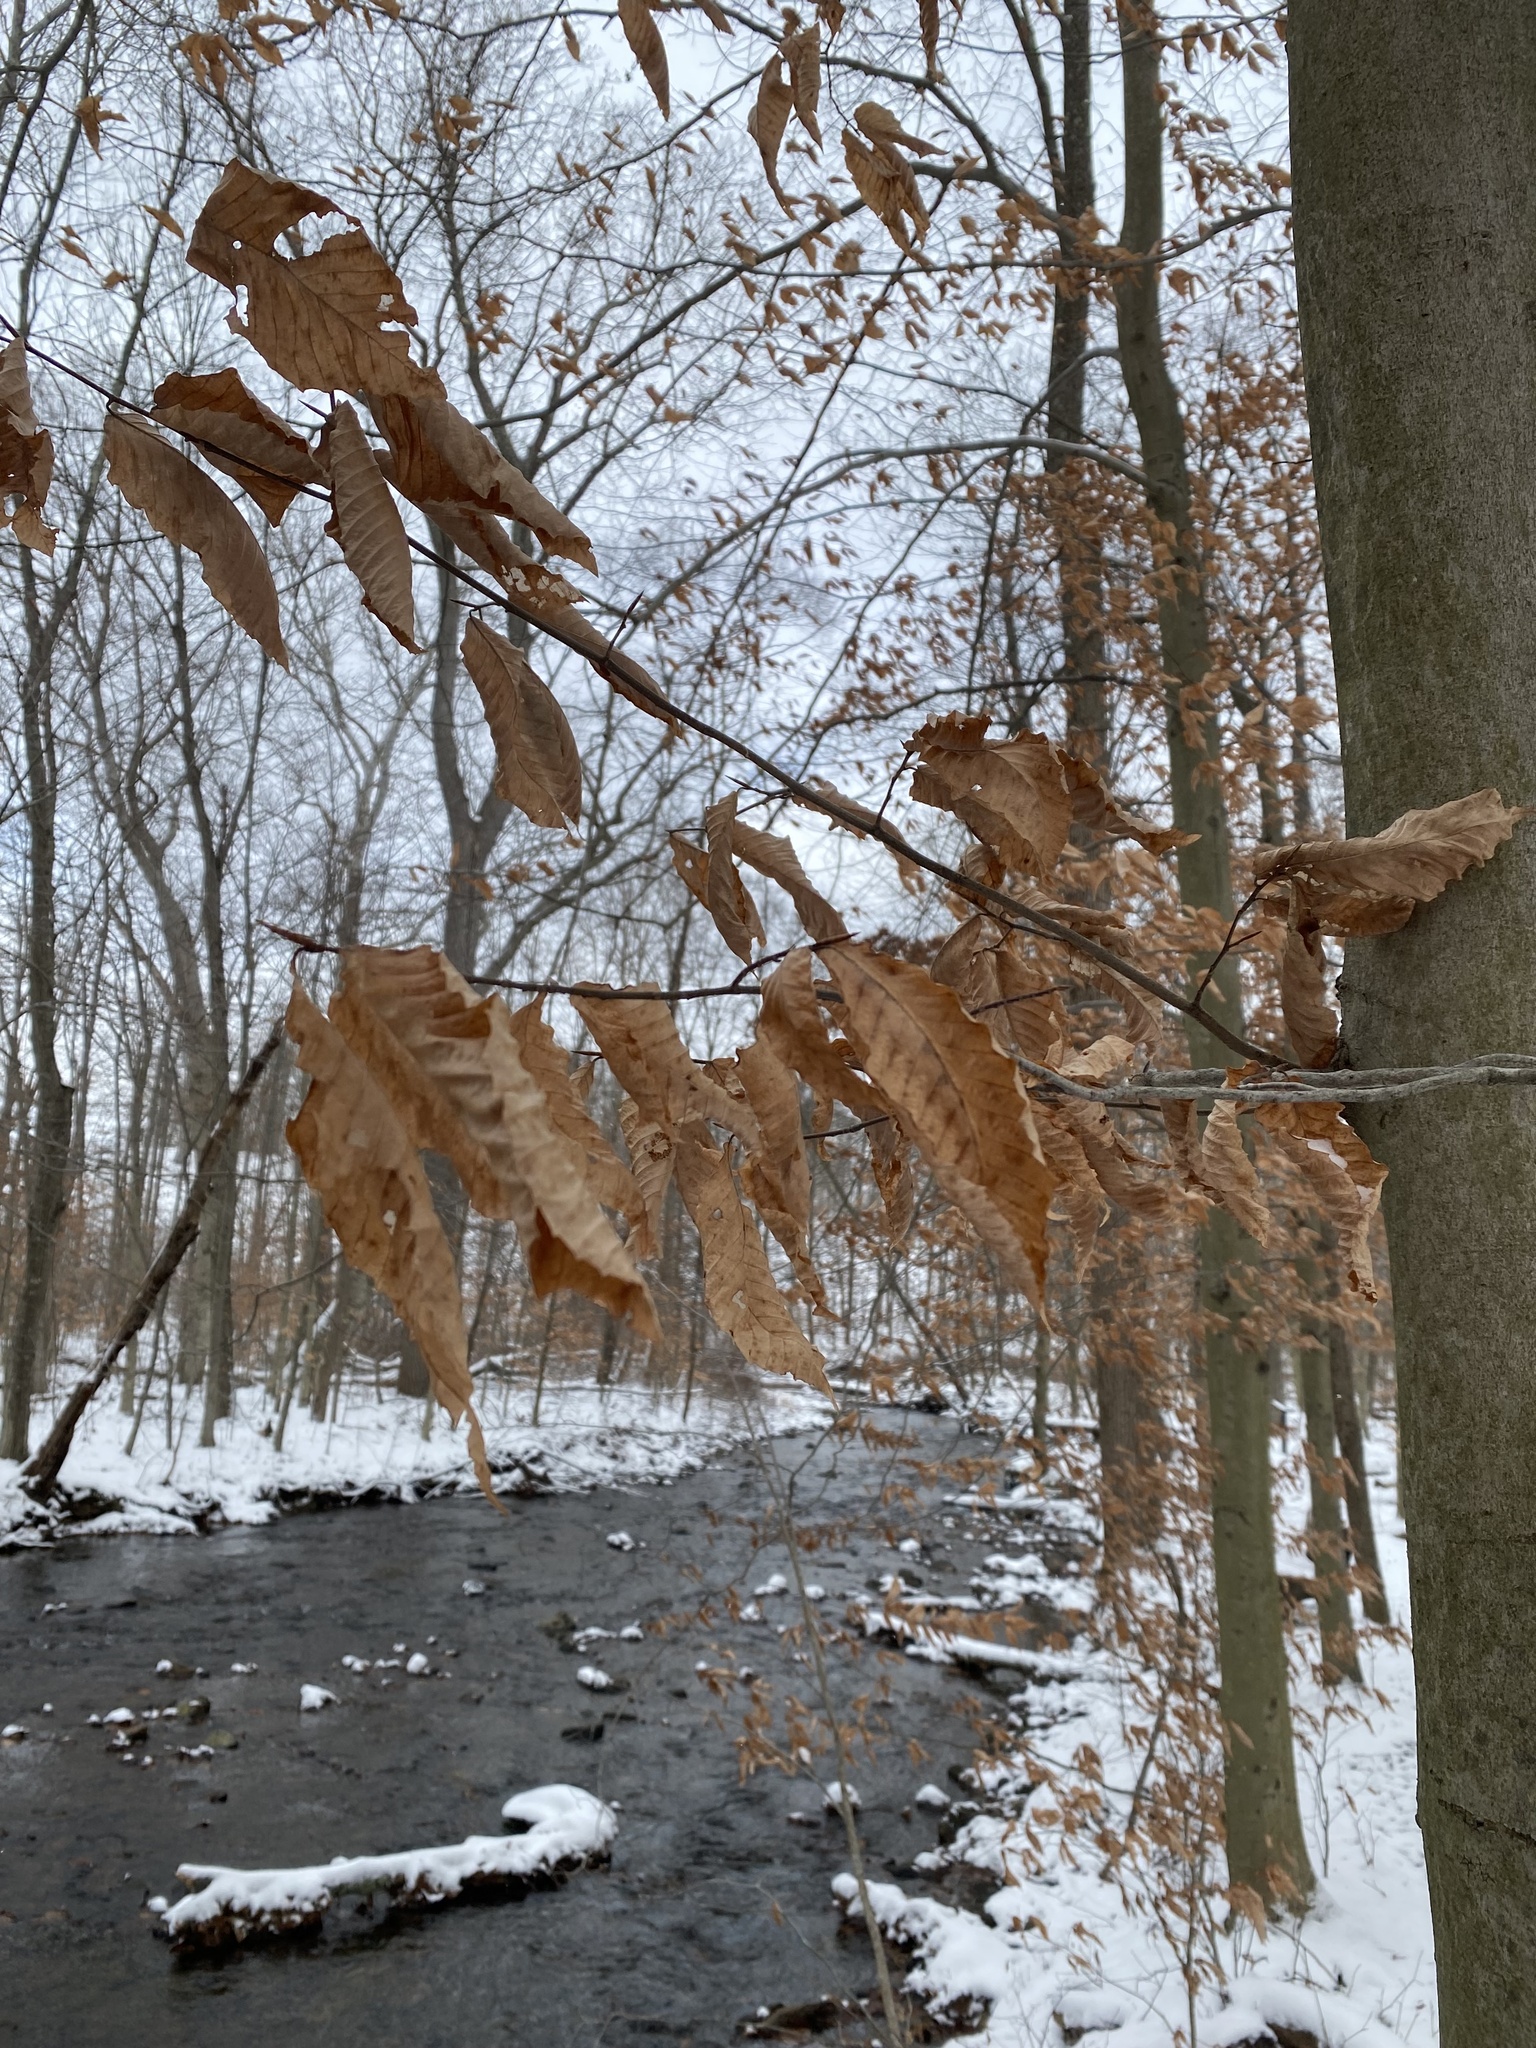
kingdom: Plantae
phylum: Tracheophyta
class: Magnoliopsida
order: Fagales
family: Fagaceae
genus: Fagus
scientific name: Fagus grandifolia
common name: American beech
